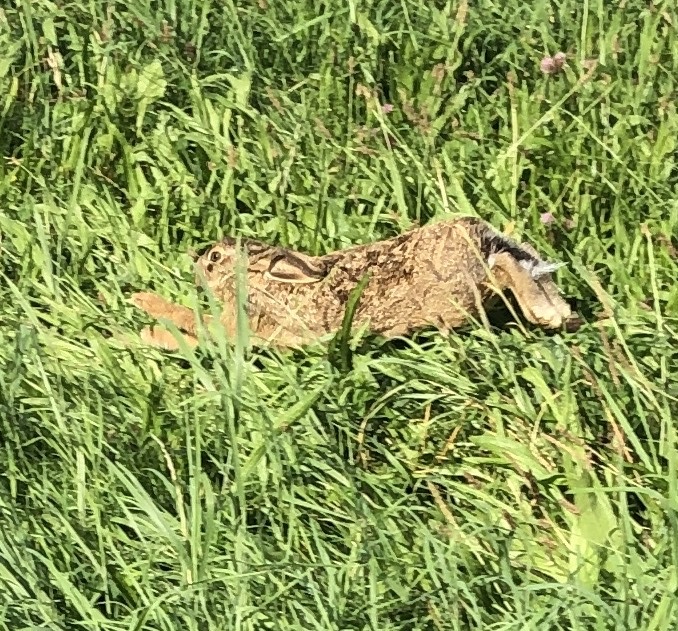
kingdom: Animalia
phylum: Chordata
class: Mammalia
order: Lagomorpha
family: Leporidae
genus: Lepus
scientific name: Lepus europaeus
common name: European hare
